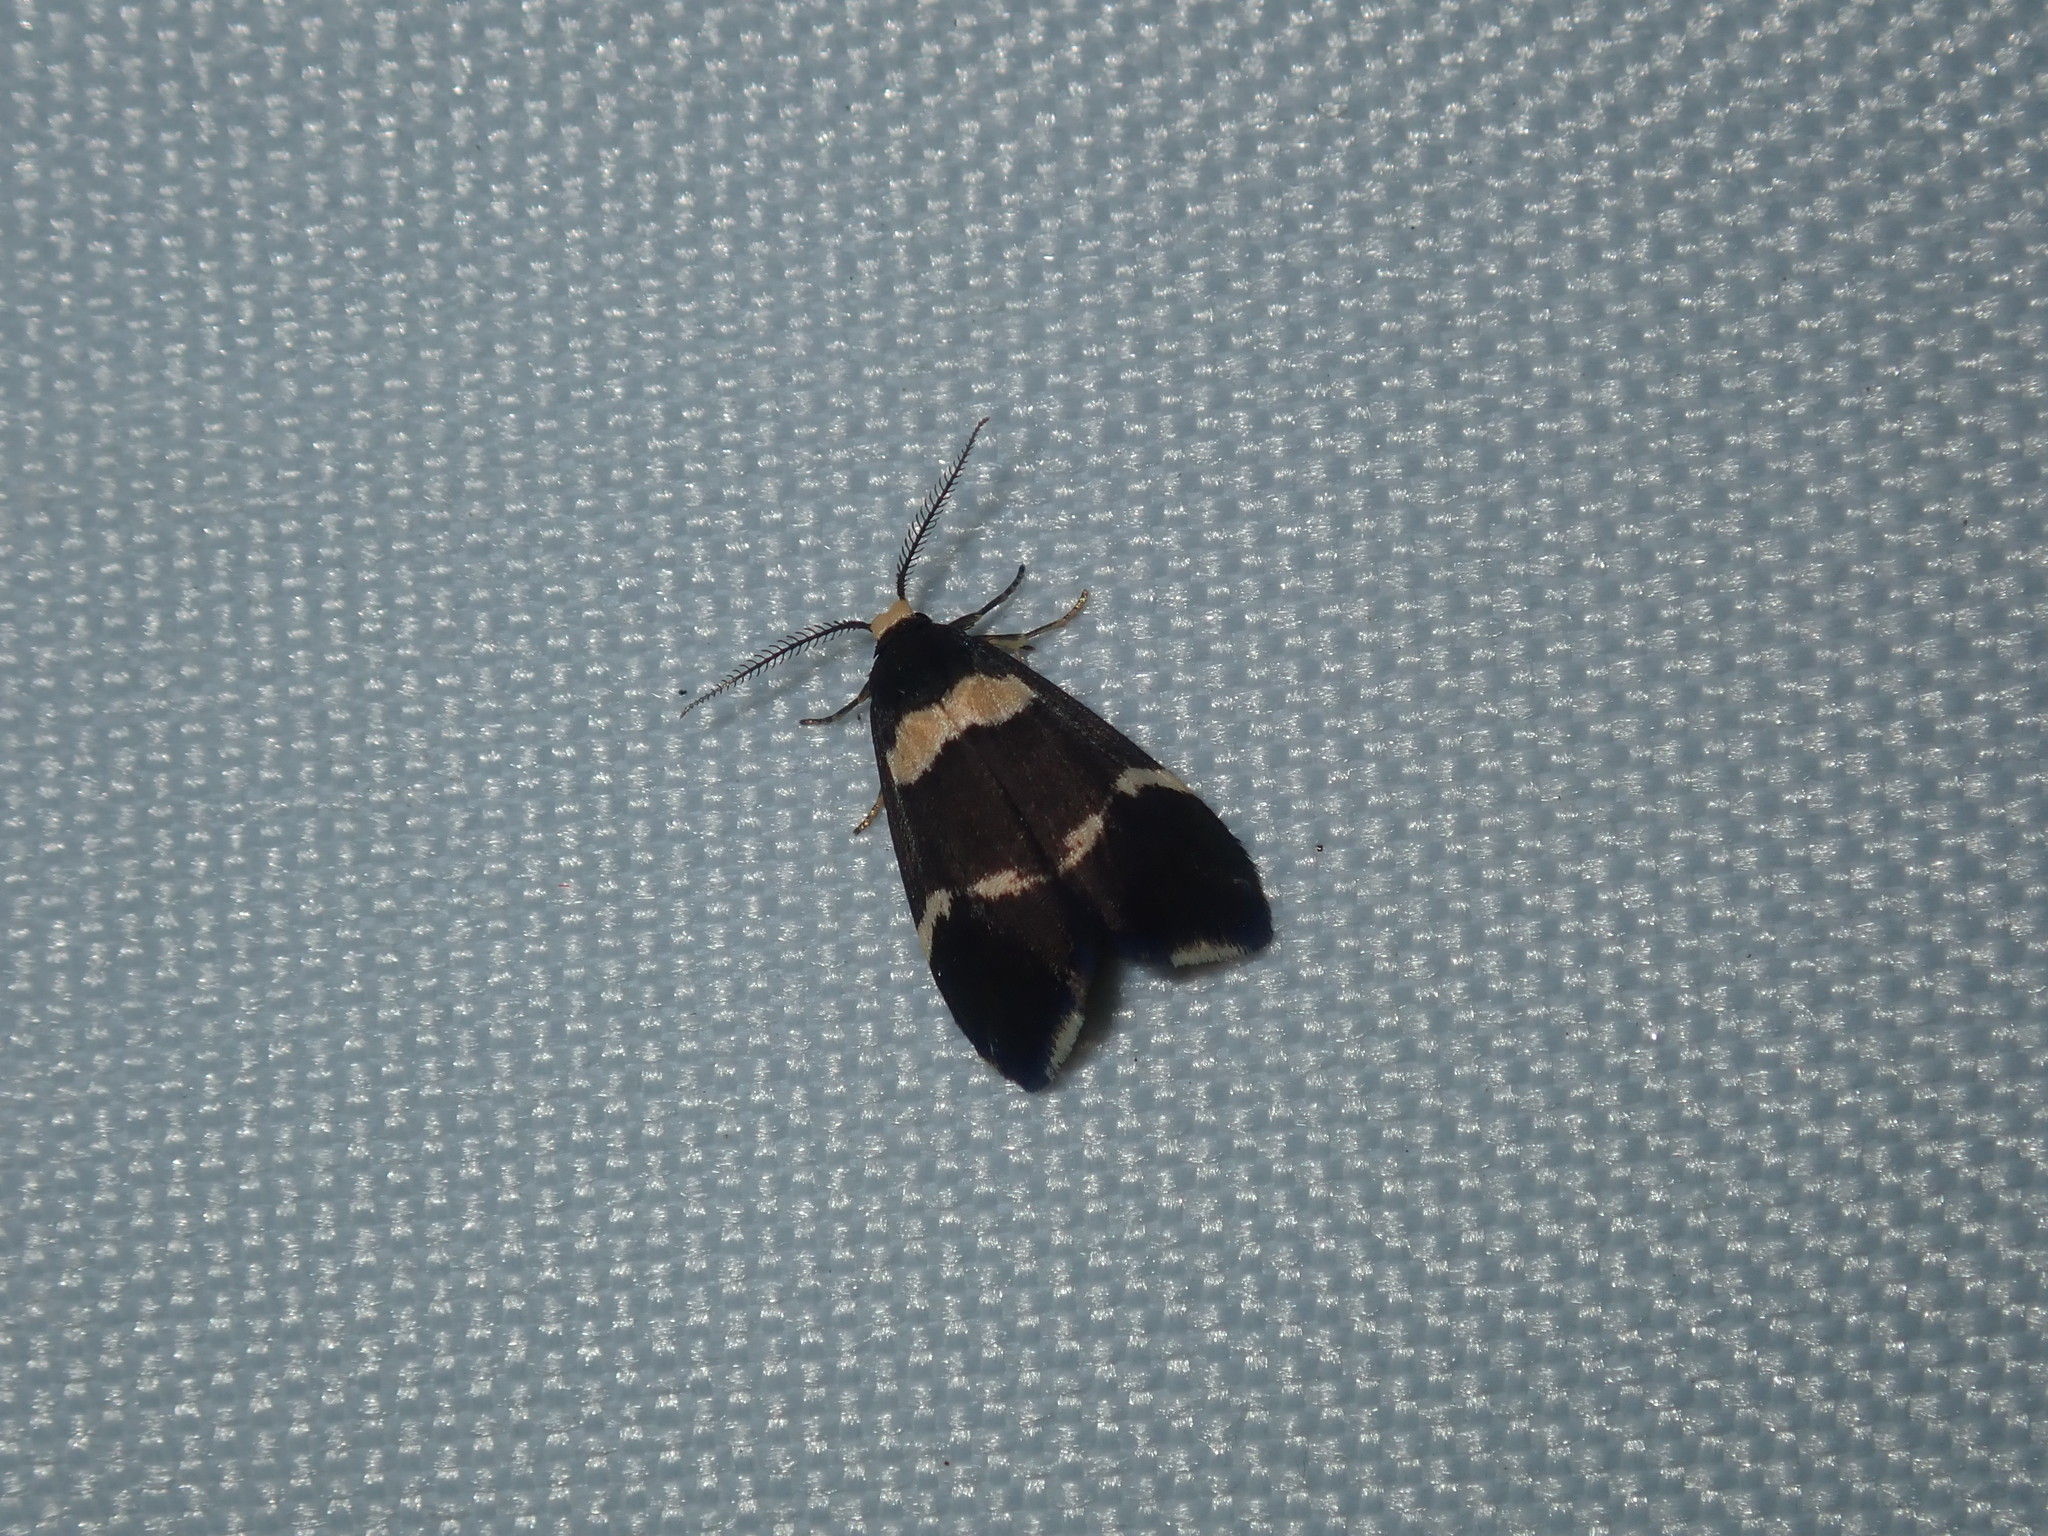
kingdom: Animalia
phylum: Arthropoda
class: Insecta
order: Lepidoptera
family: Erebidae
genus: Thallarcha
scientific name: Thallarcha phalarota
